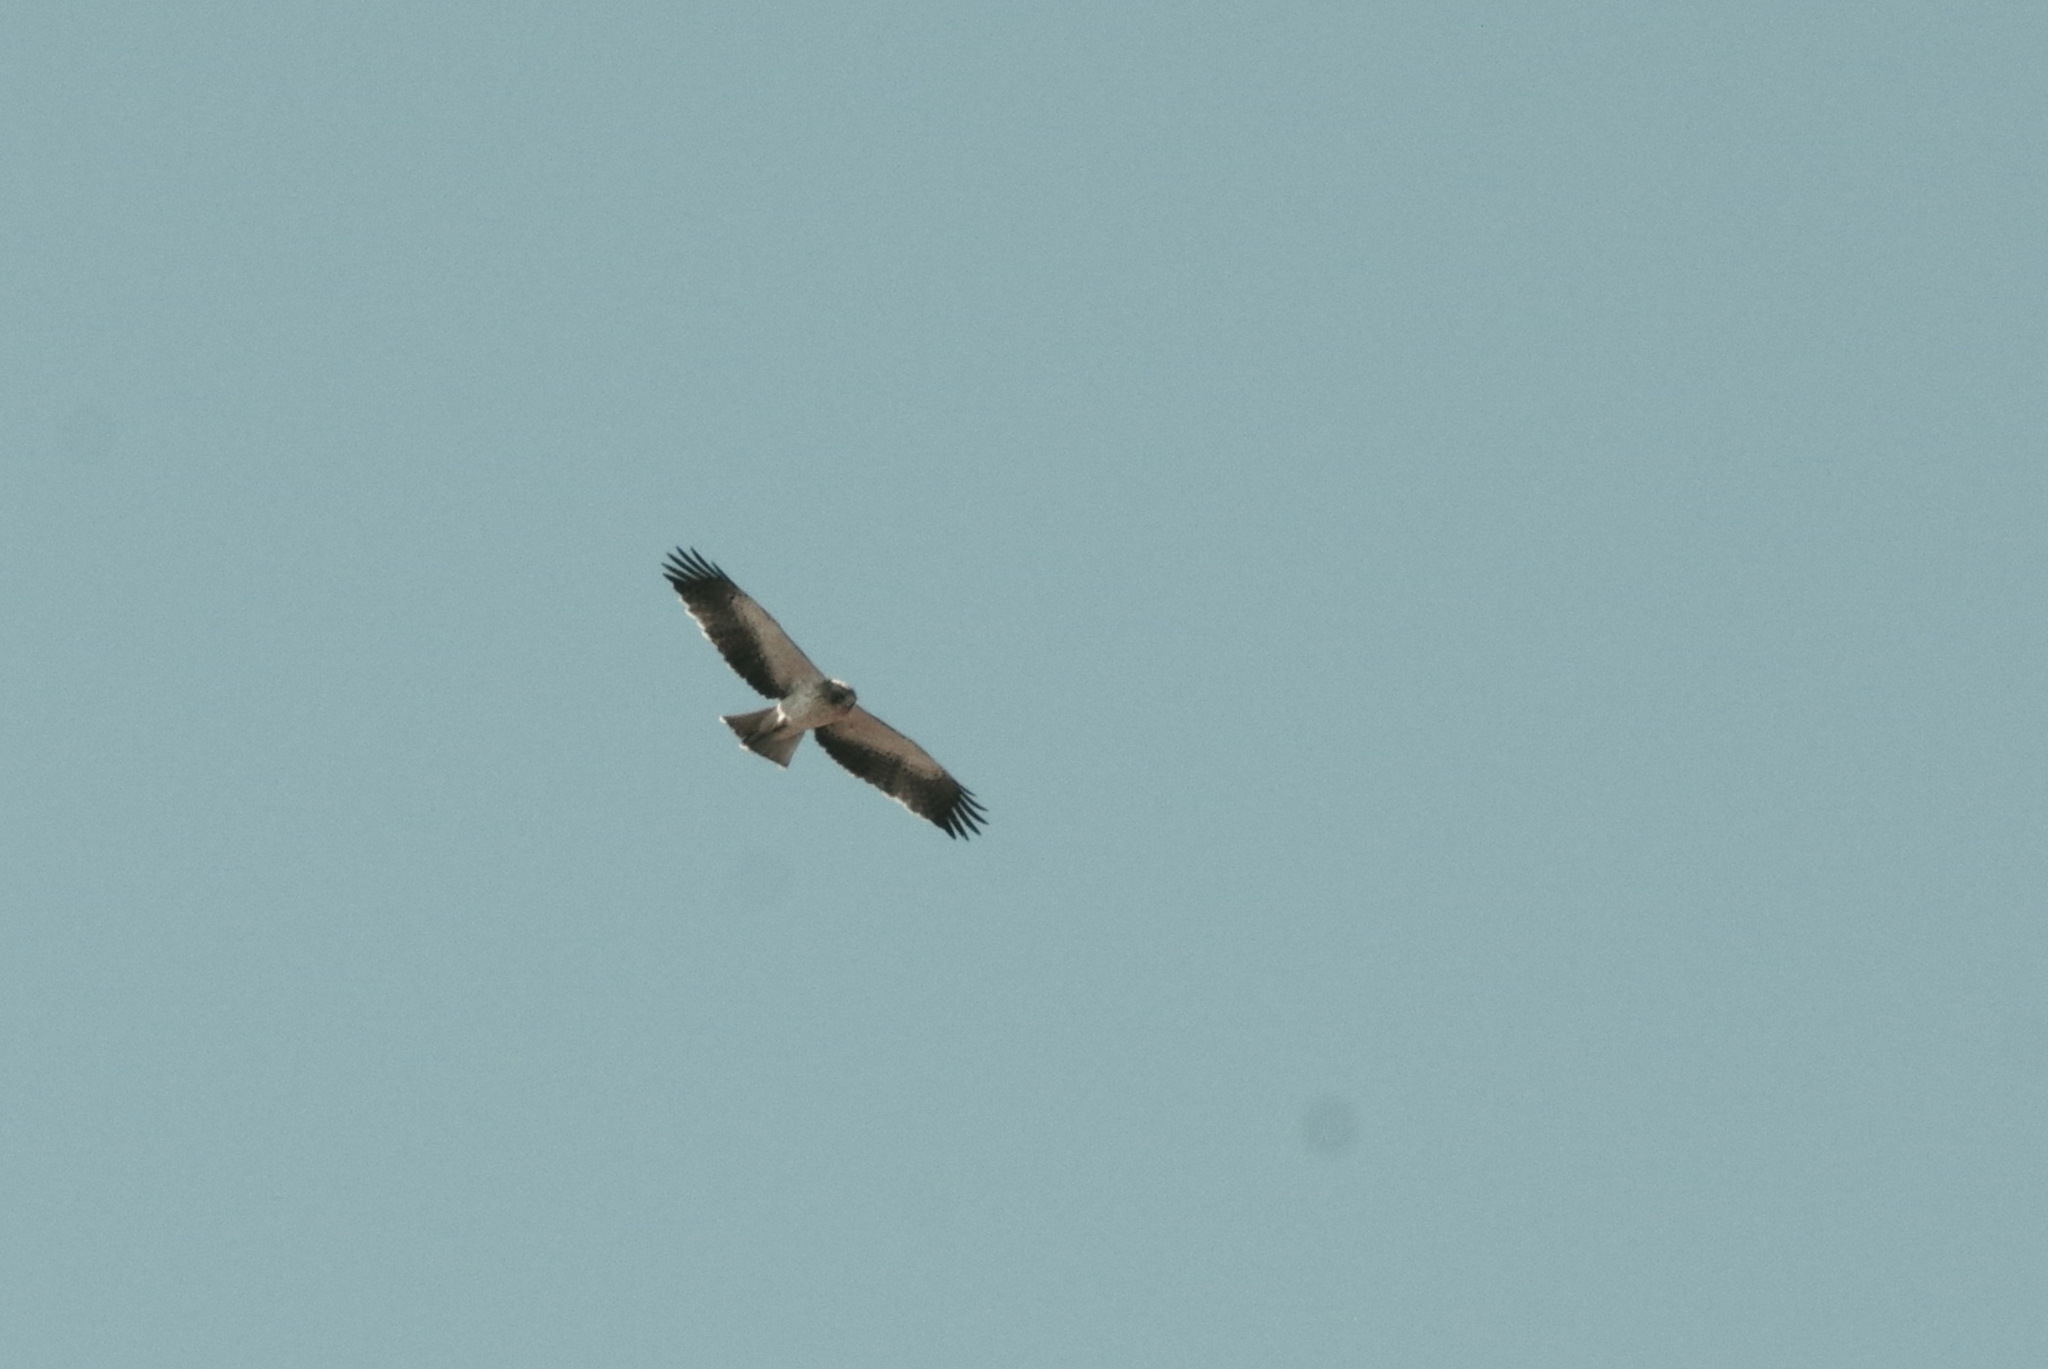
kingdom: Animalia
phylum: Chordata
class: Aves
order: Accipitriformes
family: Accipitridae
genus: Hieraaetus
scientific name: Hieraaetus pennatus
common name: Booted eagle
